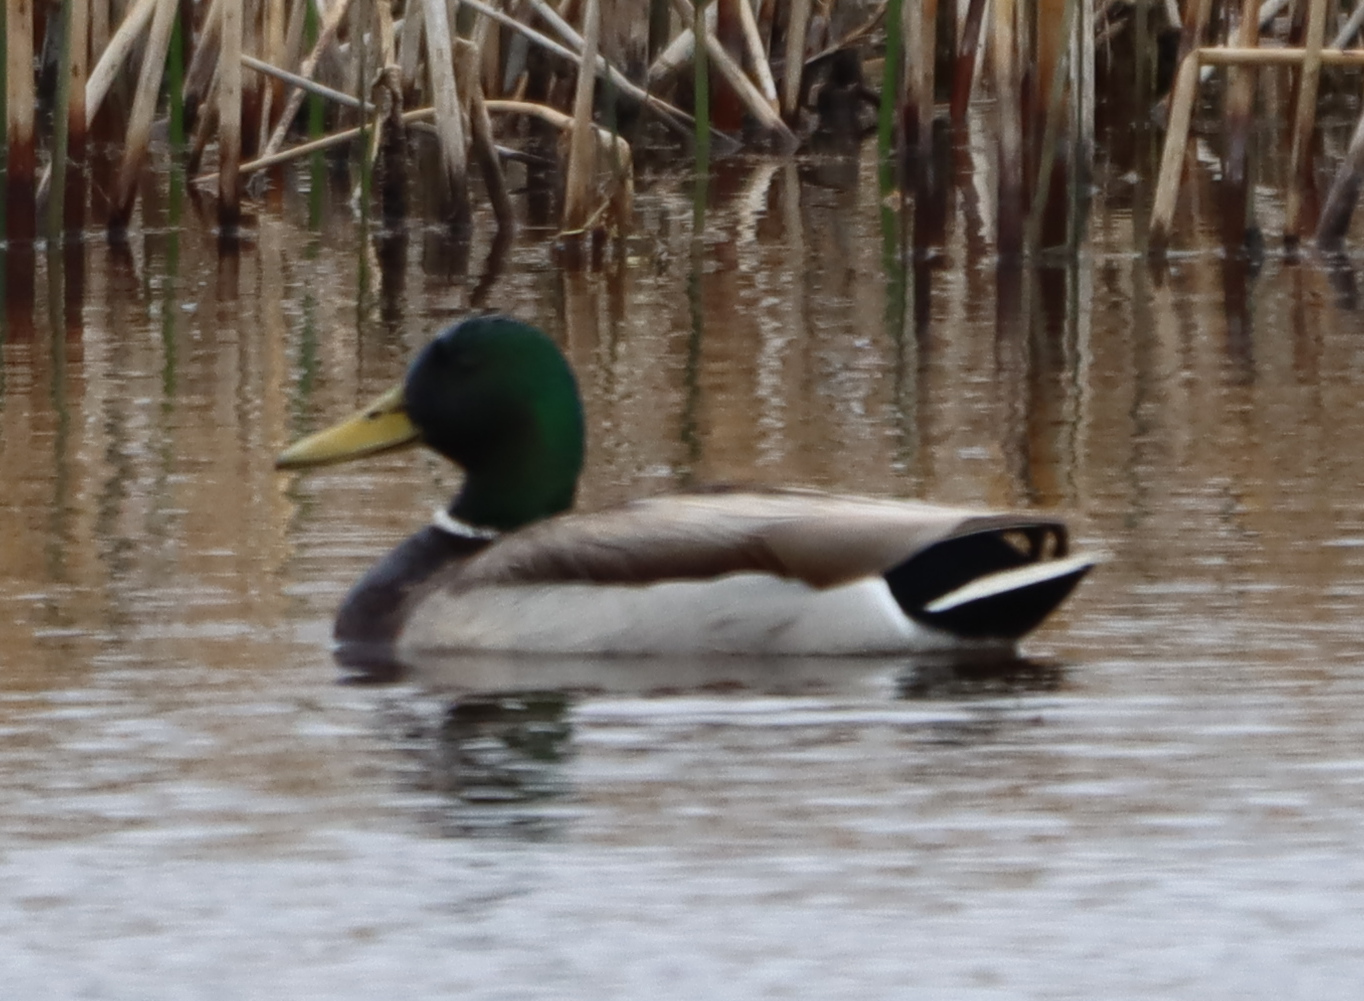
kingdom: Animalia
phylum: Chordata
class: Aves
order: Anseriformes
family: Anatidae
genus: Anas
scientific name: Anas platyrhynchos
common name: Mallard
